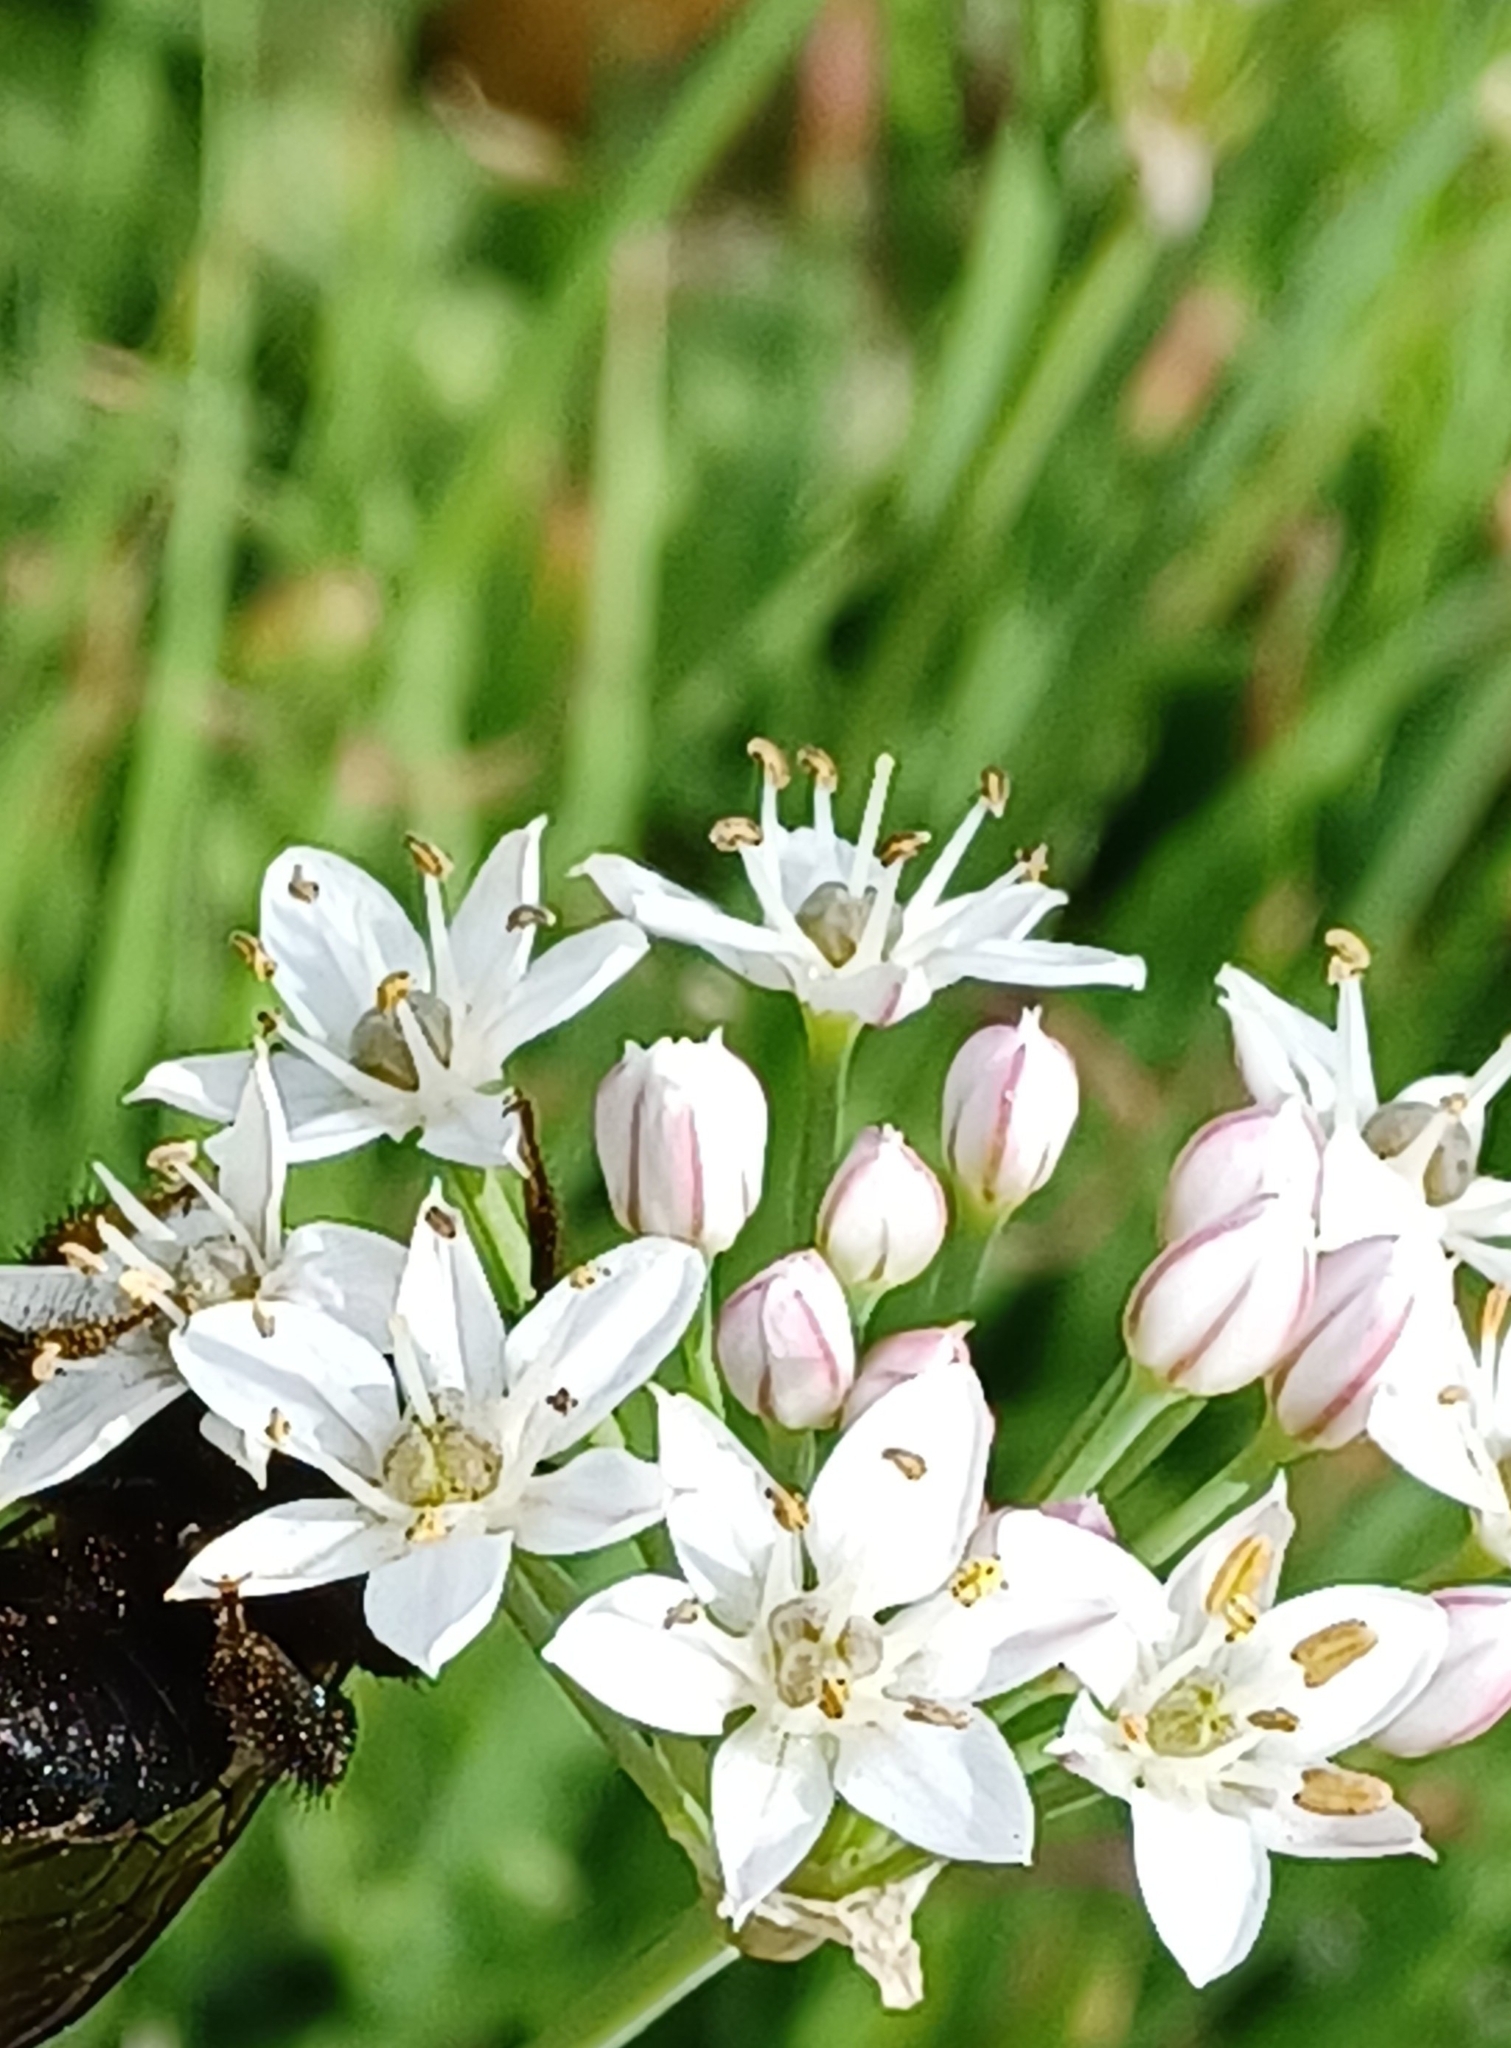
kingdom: Plantae
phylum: Tracheophyta
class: Liliopsida
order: Asparagales
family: Amaryllidaceae
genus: Allium
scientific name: Allium tuberosum
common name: Chinese chives
